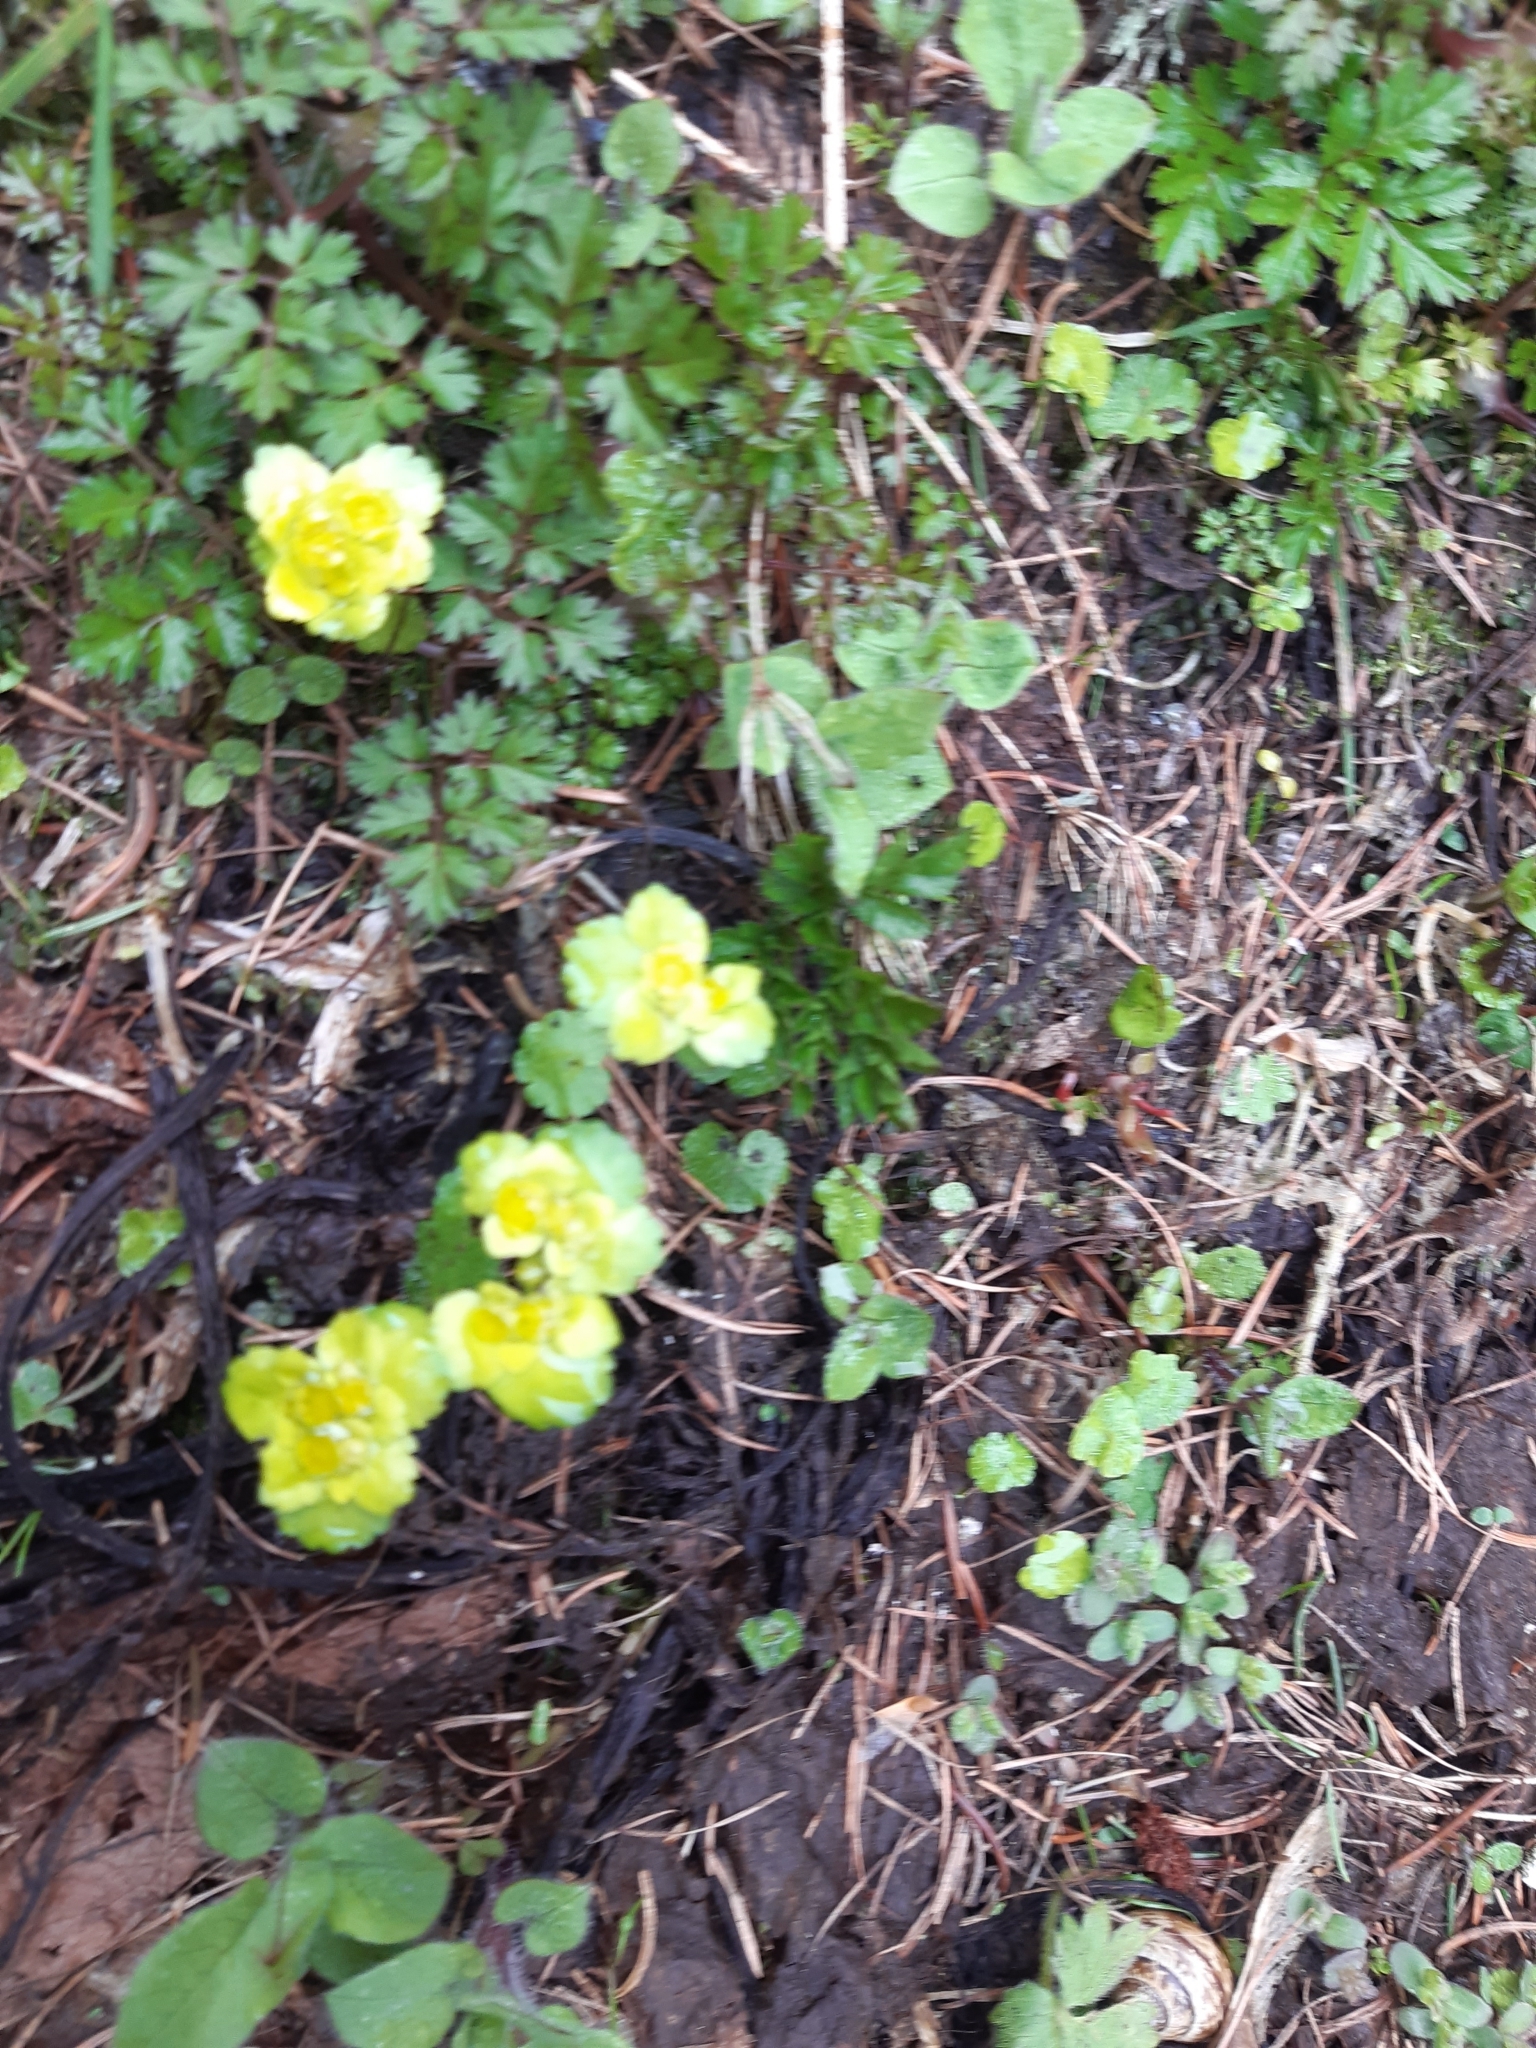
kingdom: Plantae
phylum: Tracheophyta
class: Magnoliopsida
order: Saxifragales
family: Saxifragaceae
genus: Chrysosplenium
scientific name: Chrysosplenium alternifolium
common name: Alternate-leaved golden-saxifrage
